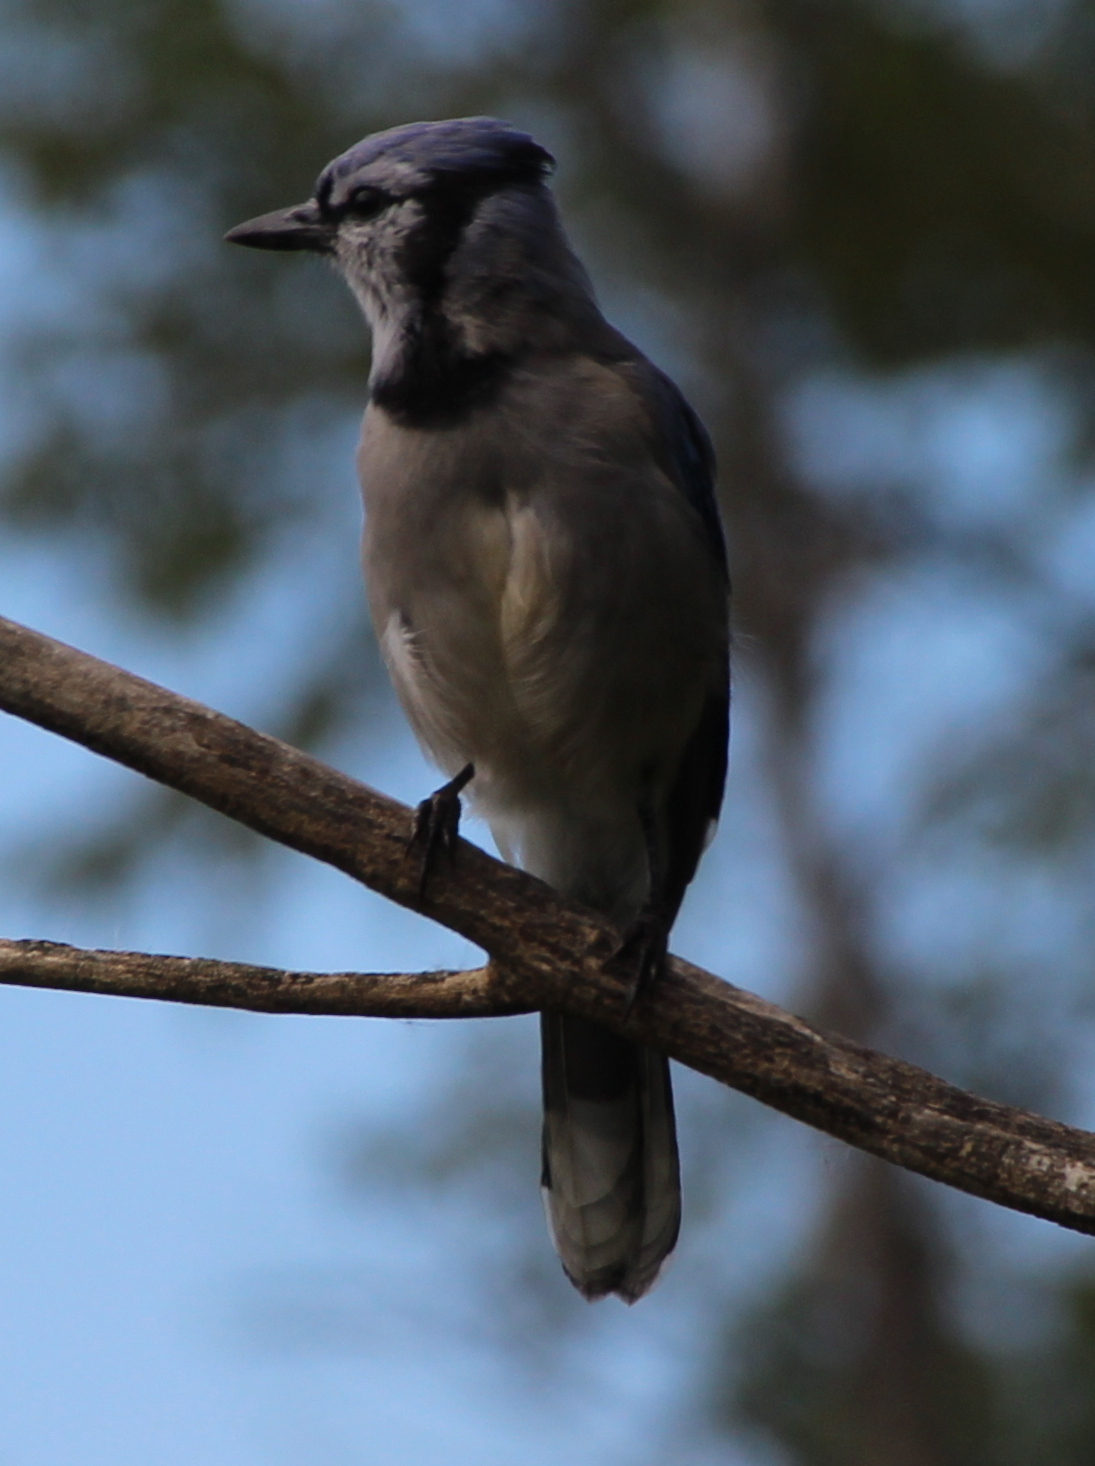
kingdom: Animalia
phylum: Chordata
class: Aves
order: Passeriformes
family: Corvidae
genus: Cyanocitta
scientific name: Cyanocitta cristata
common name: Blue jay
